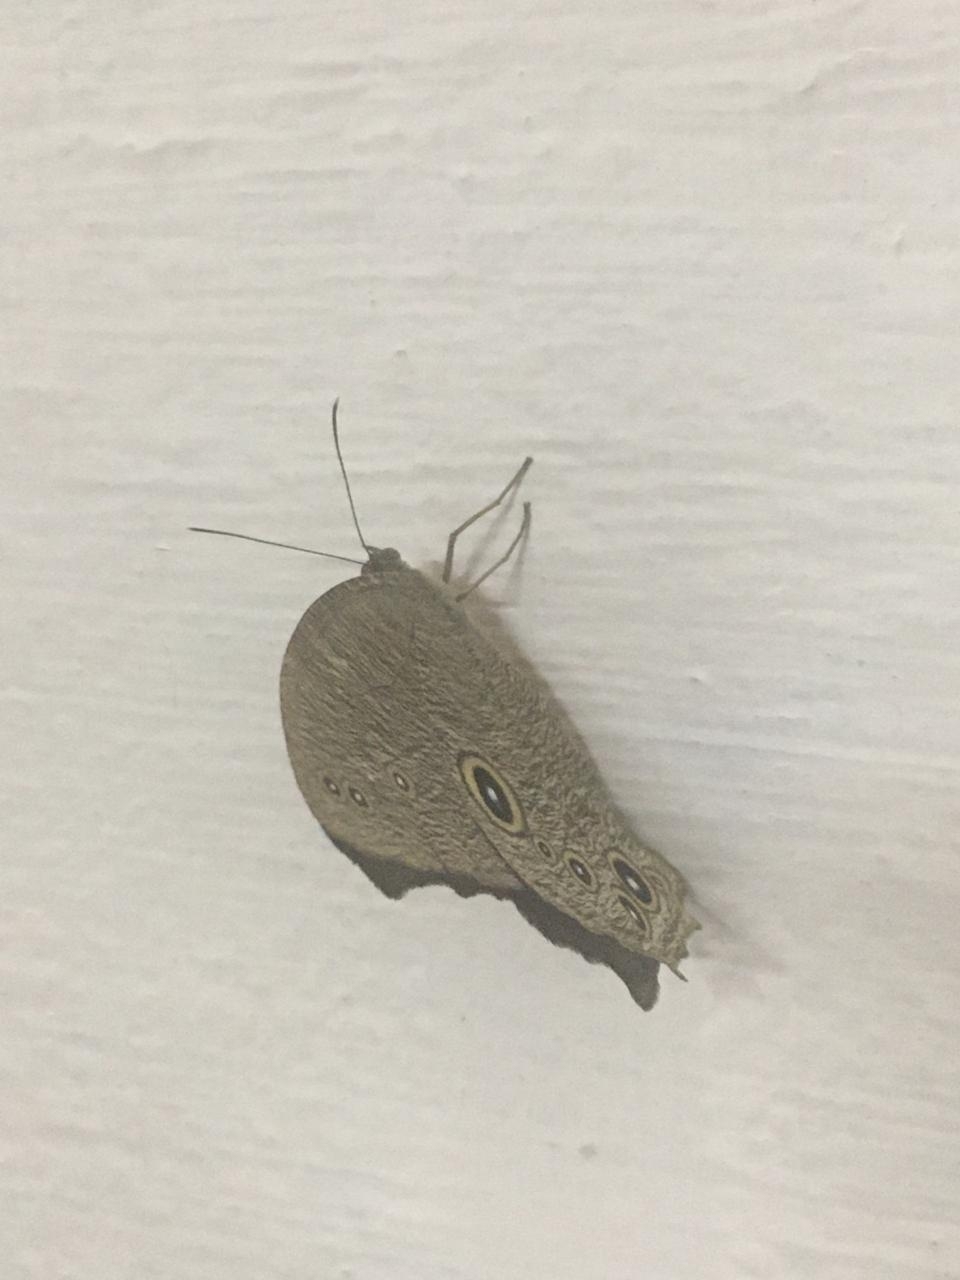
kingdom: Animalia
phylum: Arthropoda
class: Insecta
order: Lepidoptera
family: Nymphalidae
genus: Melanitis
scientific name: Melanitis leda
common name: Twilight brown
